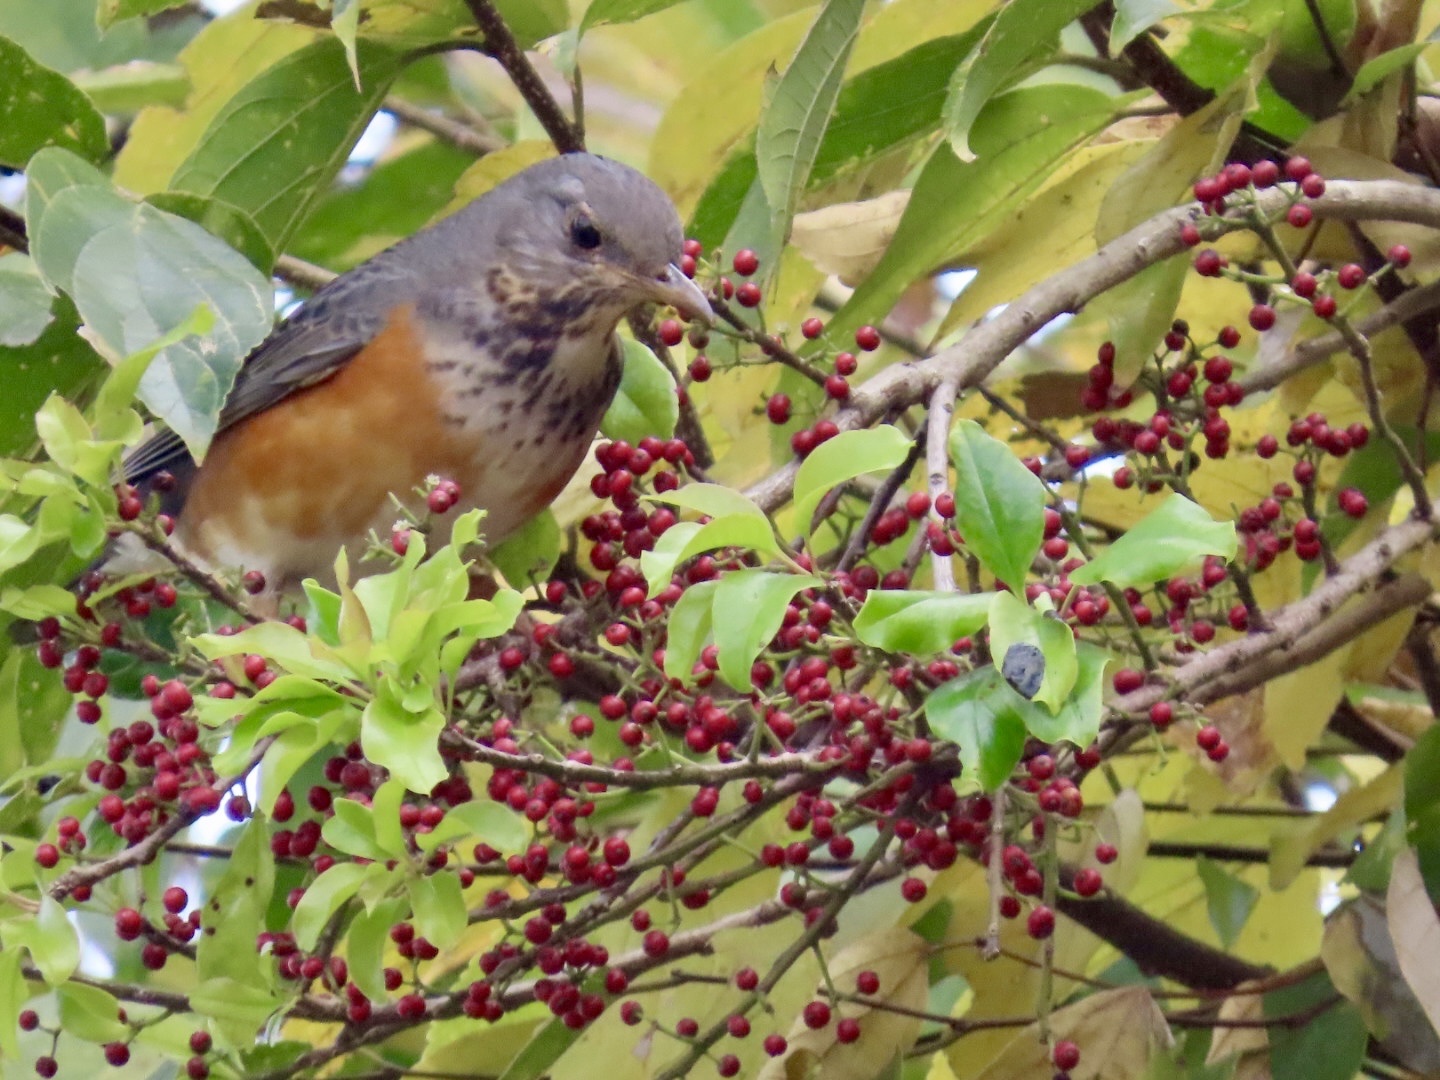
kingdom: Animalia
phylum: Chordata
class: Aves
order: Passeriformes
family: Turdidae
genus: Turdus
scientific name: Turdus hortulorum
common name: Grey-backed thrush
